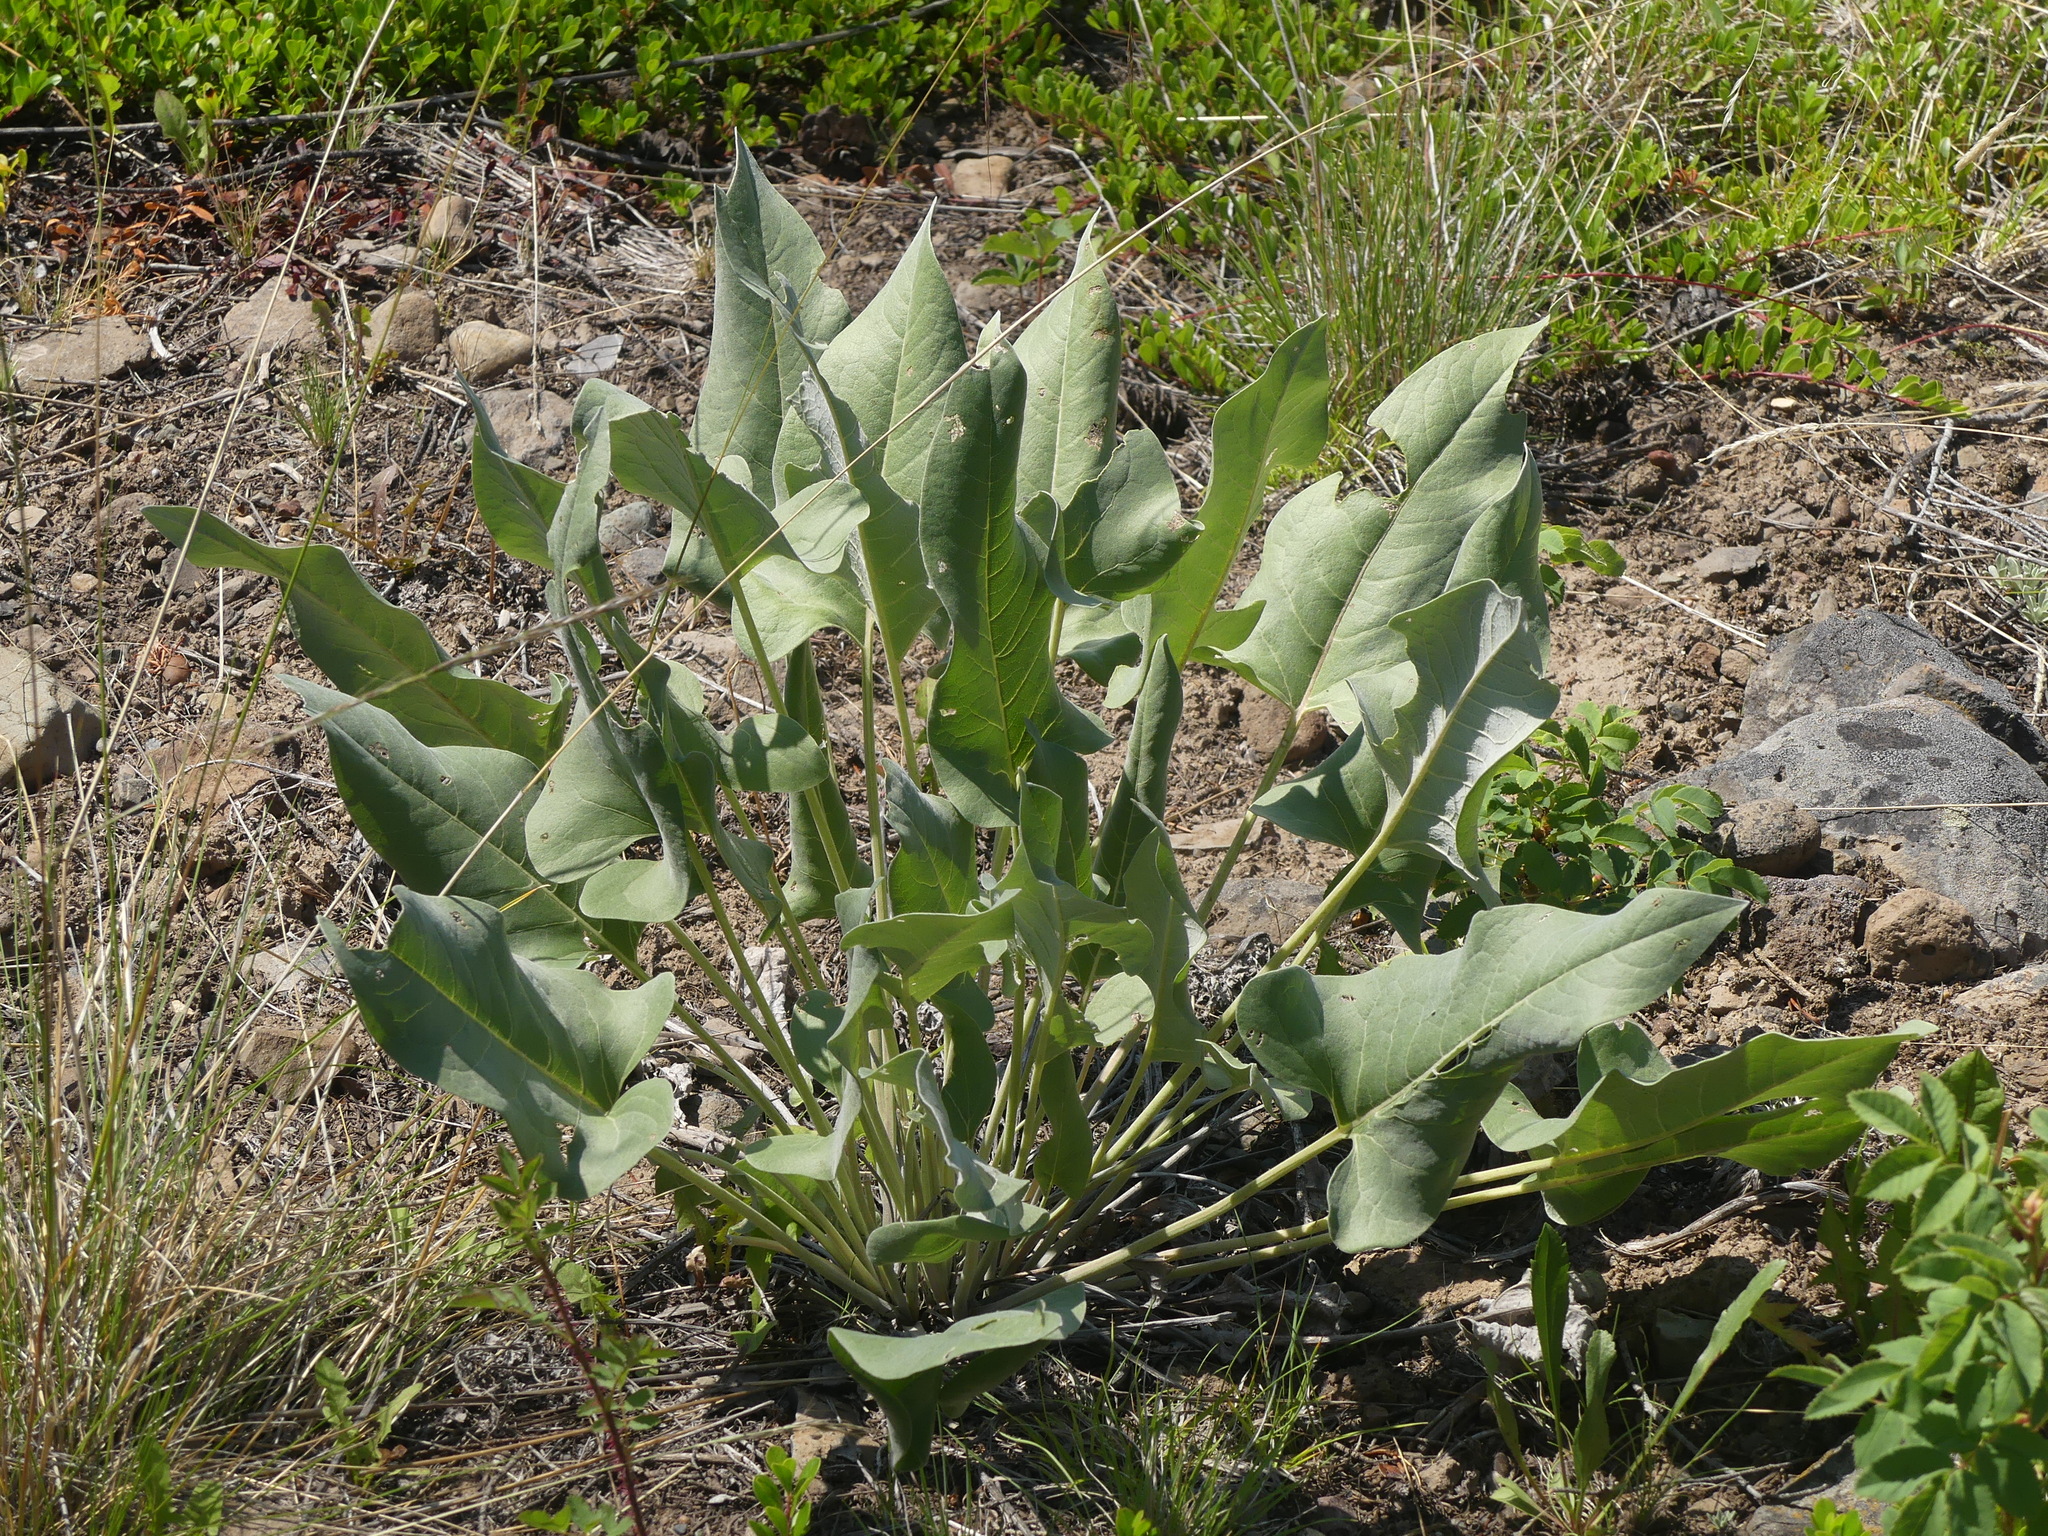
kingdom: Plantae
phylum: Tracheophyta
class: Magnoliopsida
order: Asterales
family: Asteraceae
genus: Wyethia
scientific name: Wyethia sagittata
